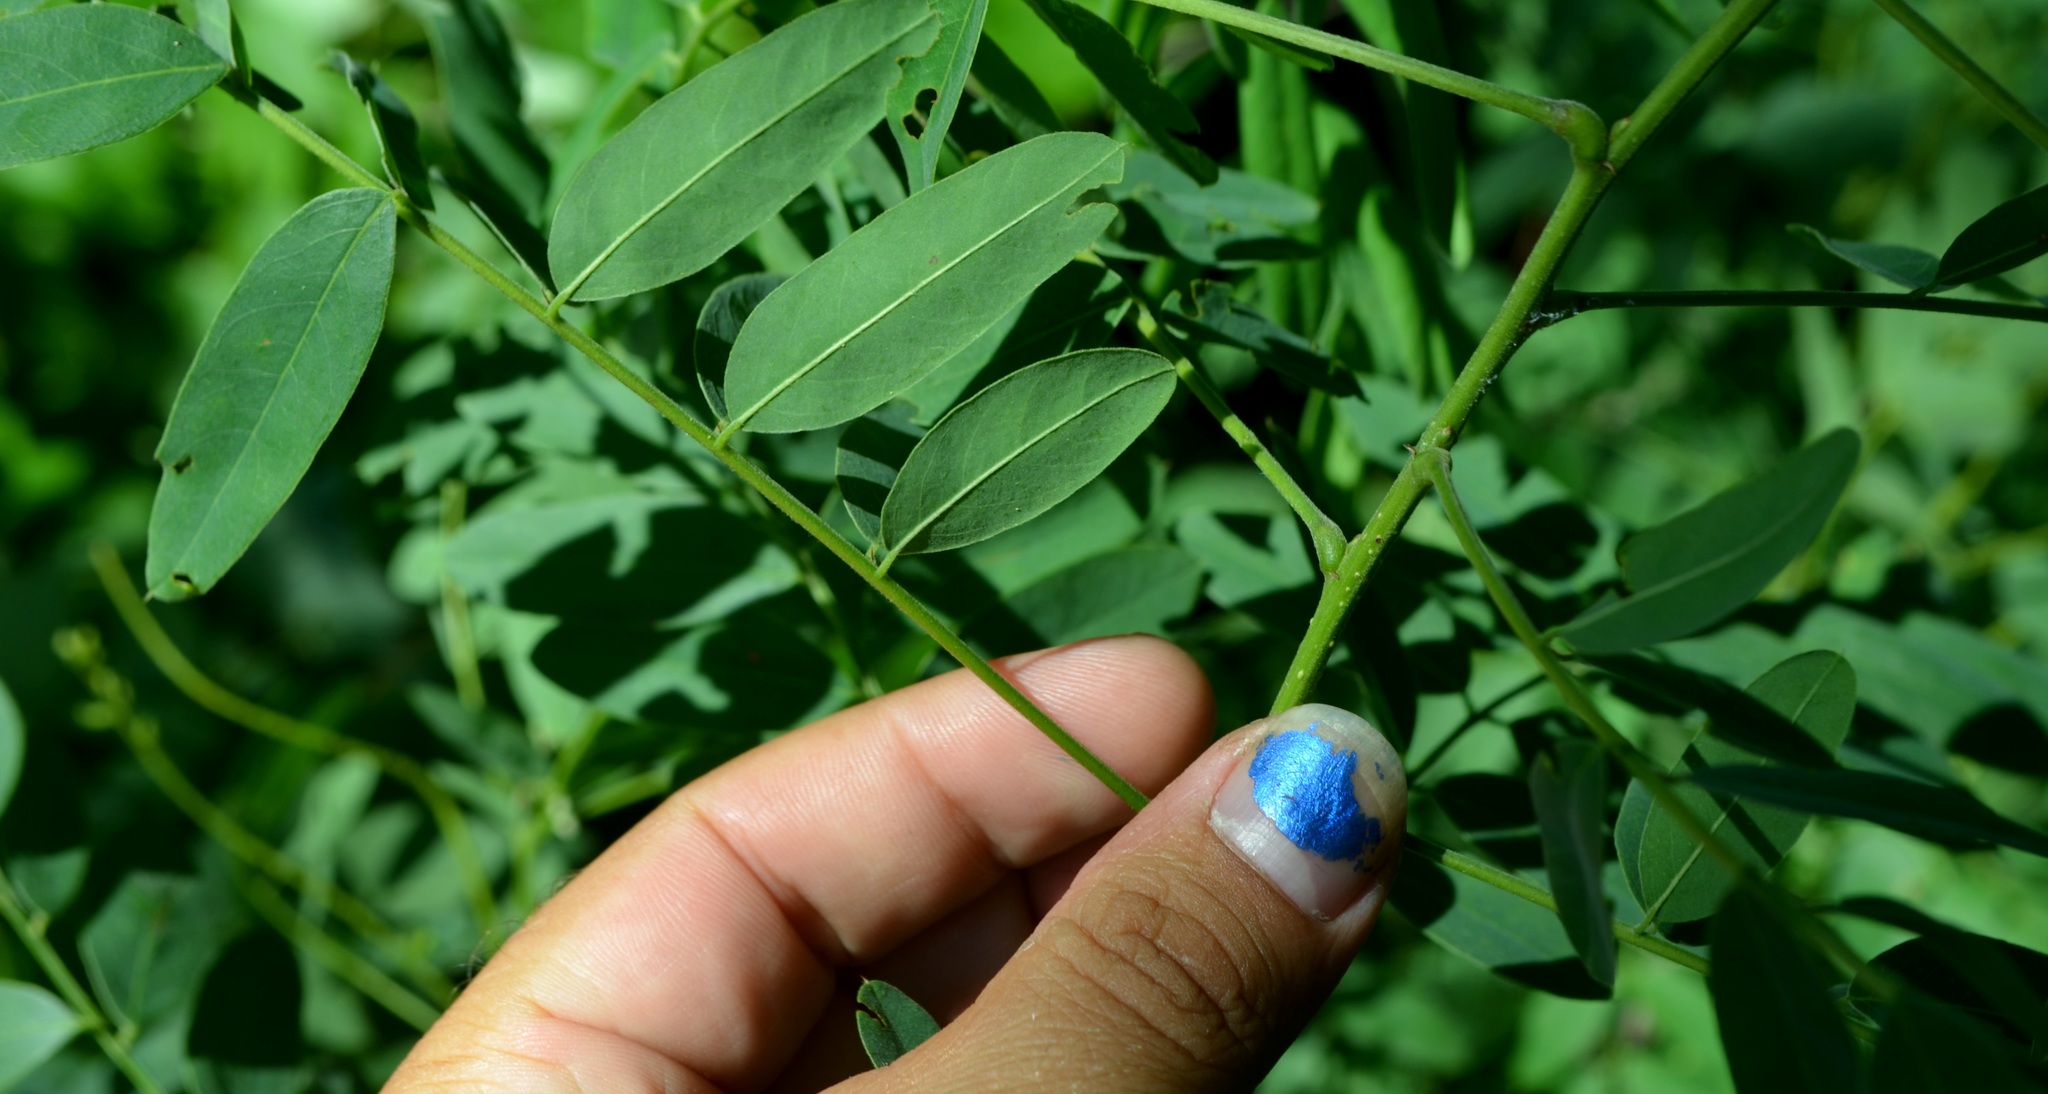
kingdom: Plantae
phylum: Tracheophyta
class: Magnoliopsida
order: Fabales
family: Fabaceae
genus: Amorpha
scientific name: Amorpha fruticosa
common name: False indigo
